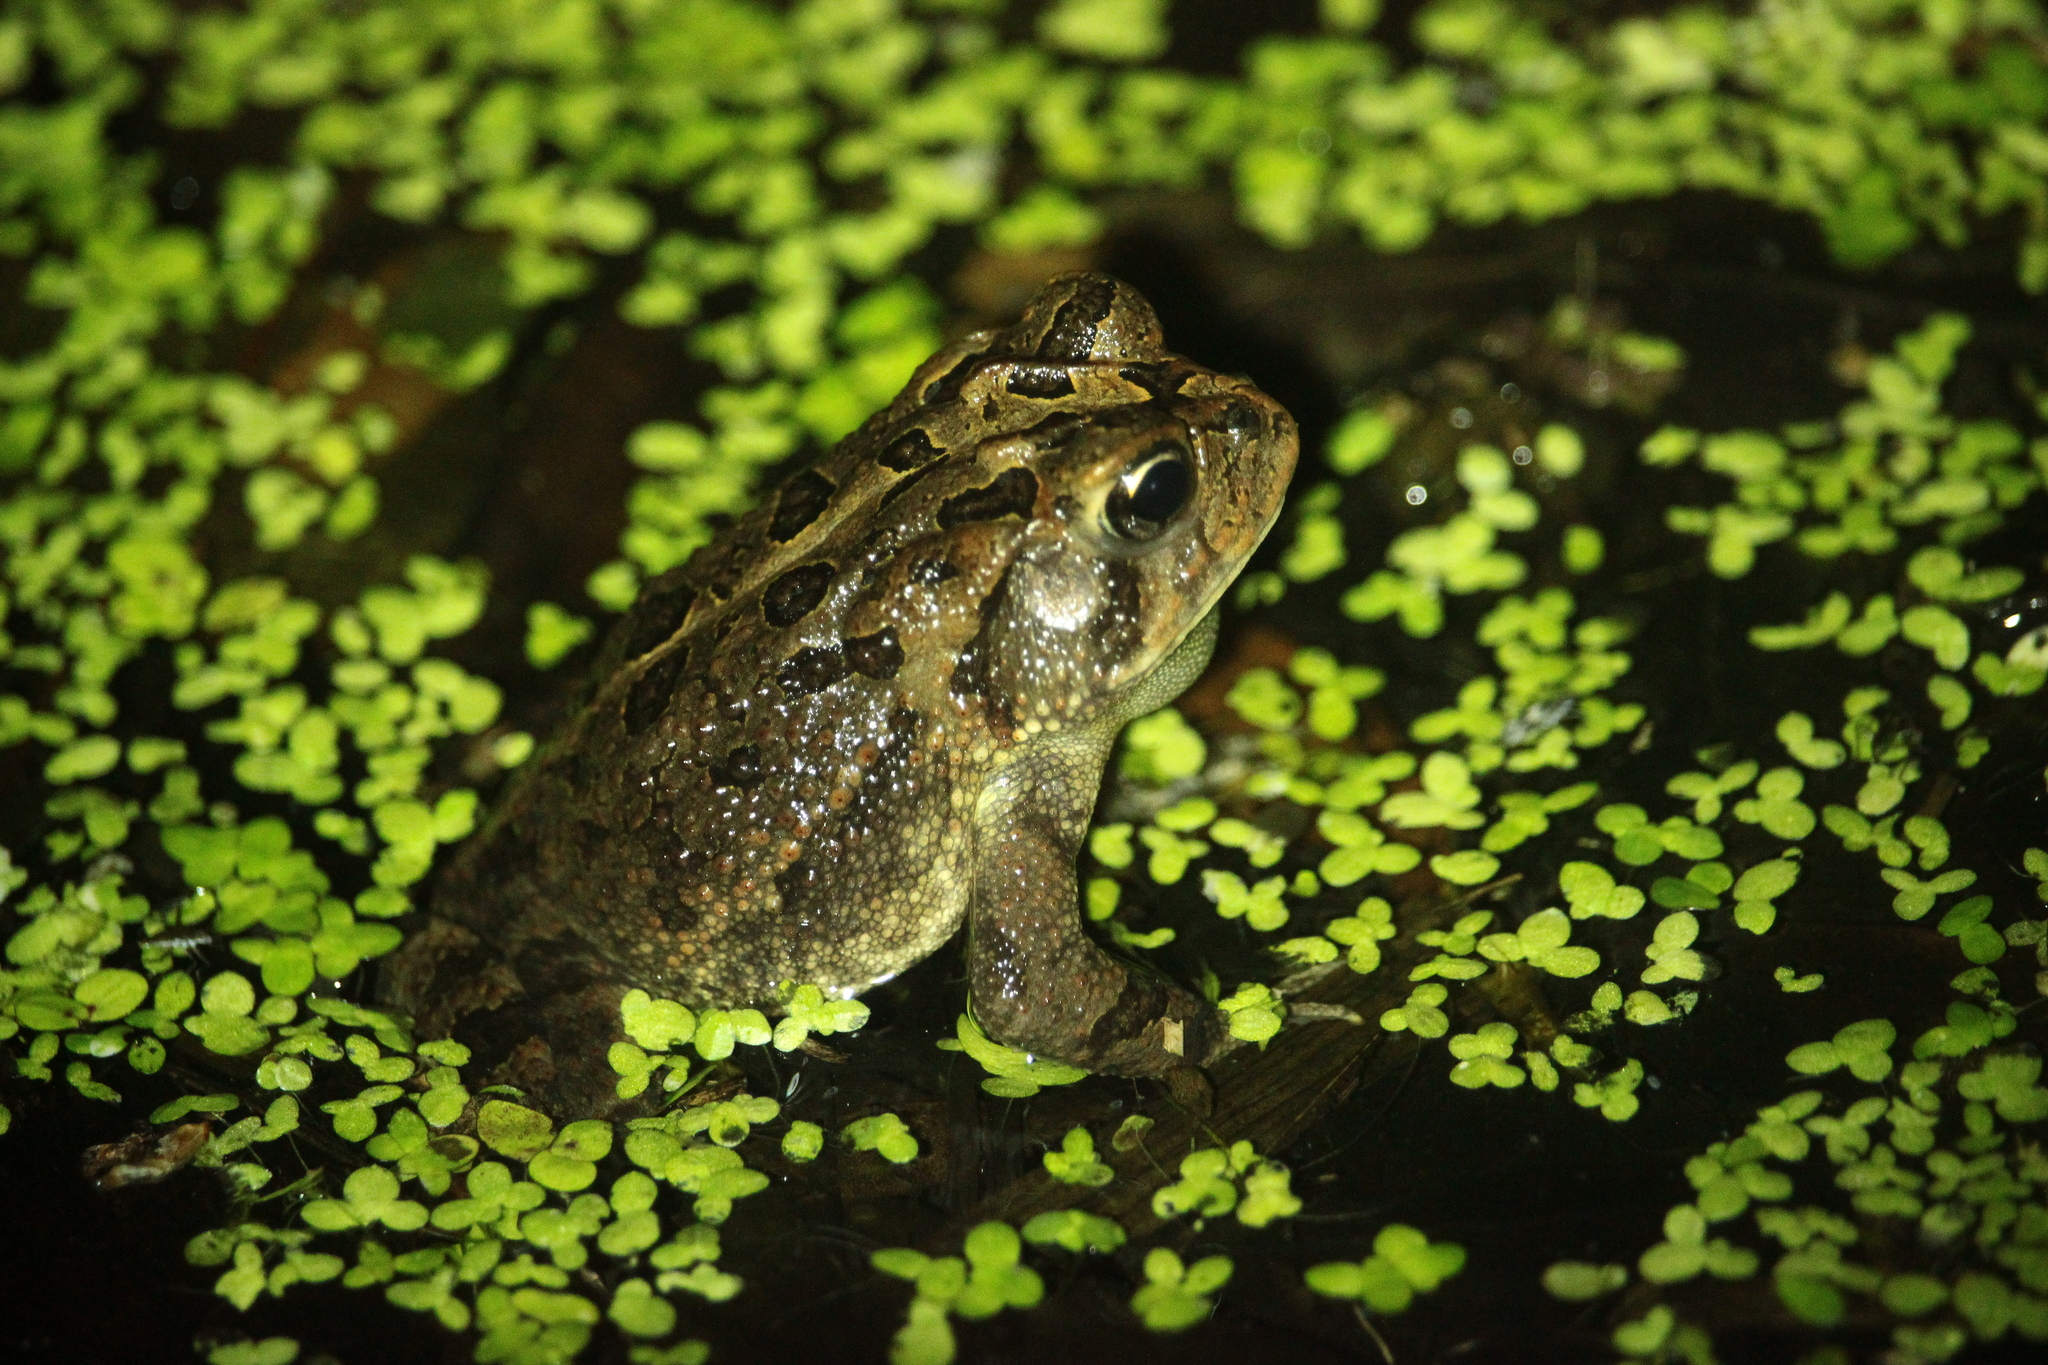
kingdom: Animalia
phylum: Chordata
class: Amphibia
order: Anura
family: Bufonidae
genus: Anaxyrus
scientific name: Anaxyrus terrestris
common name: Southern toad
